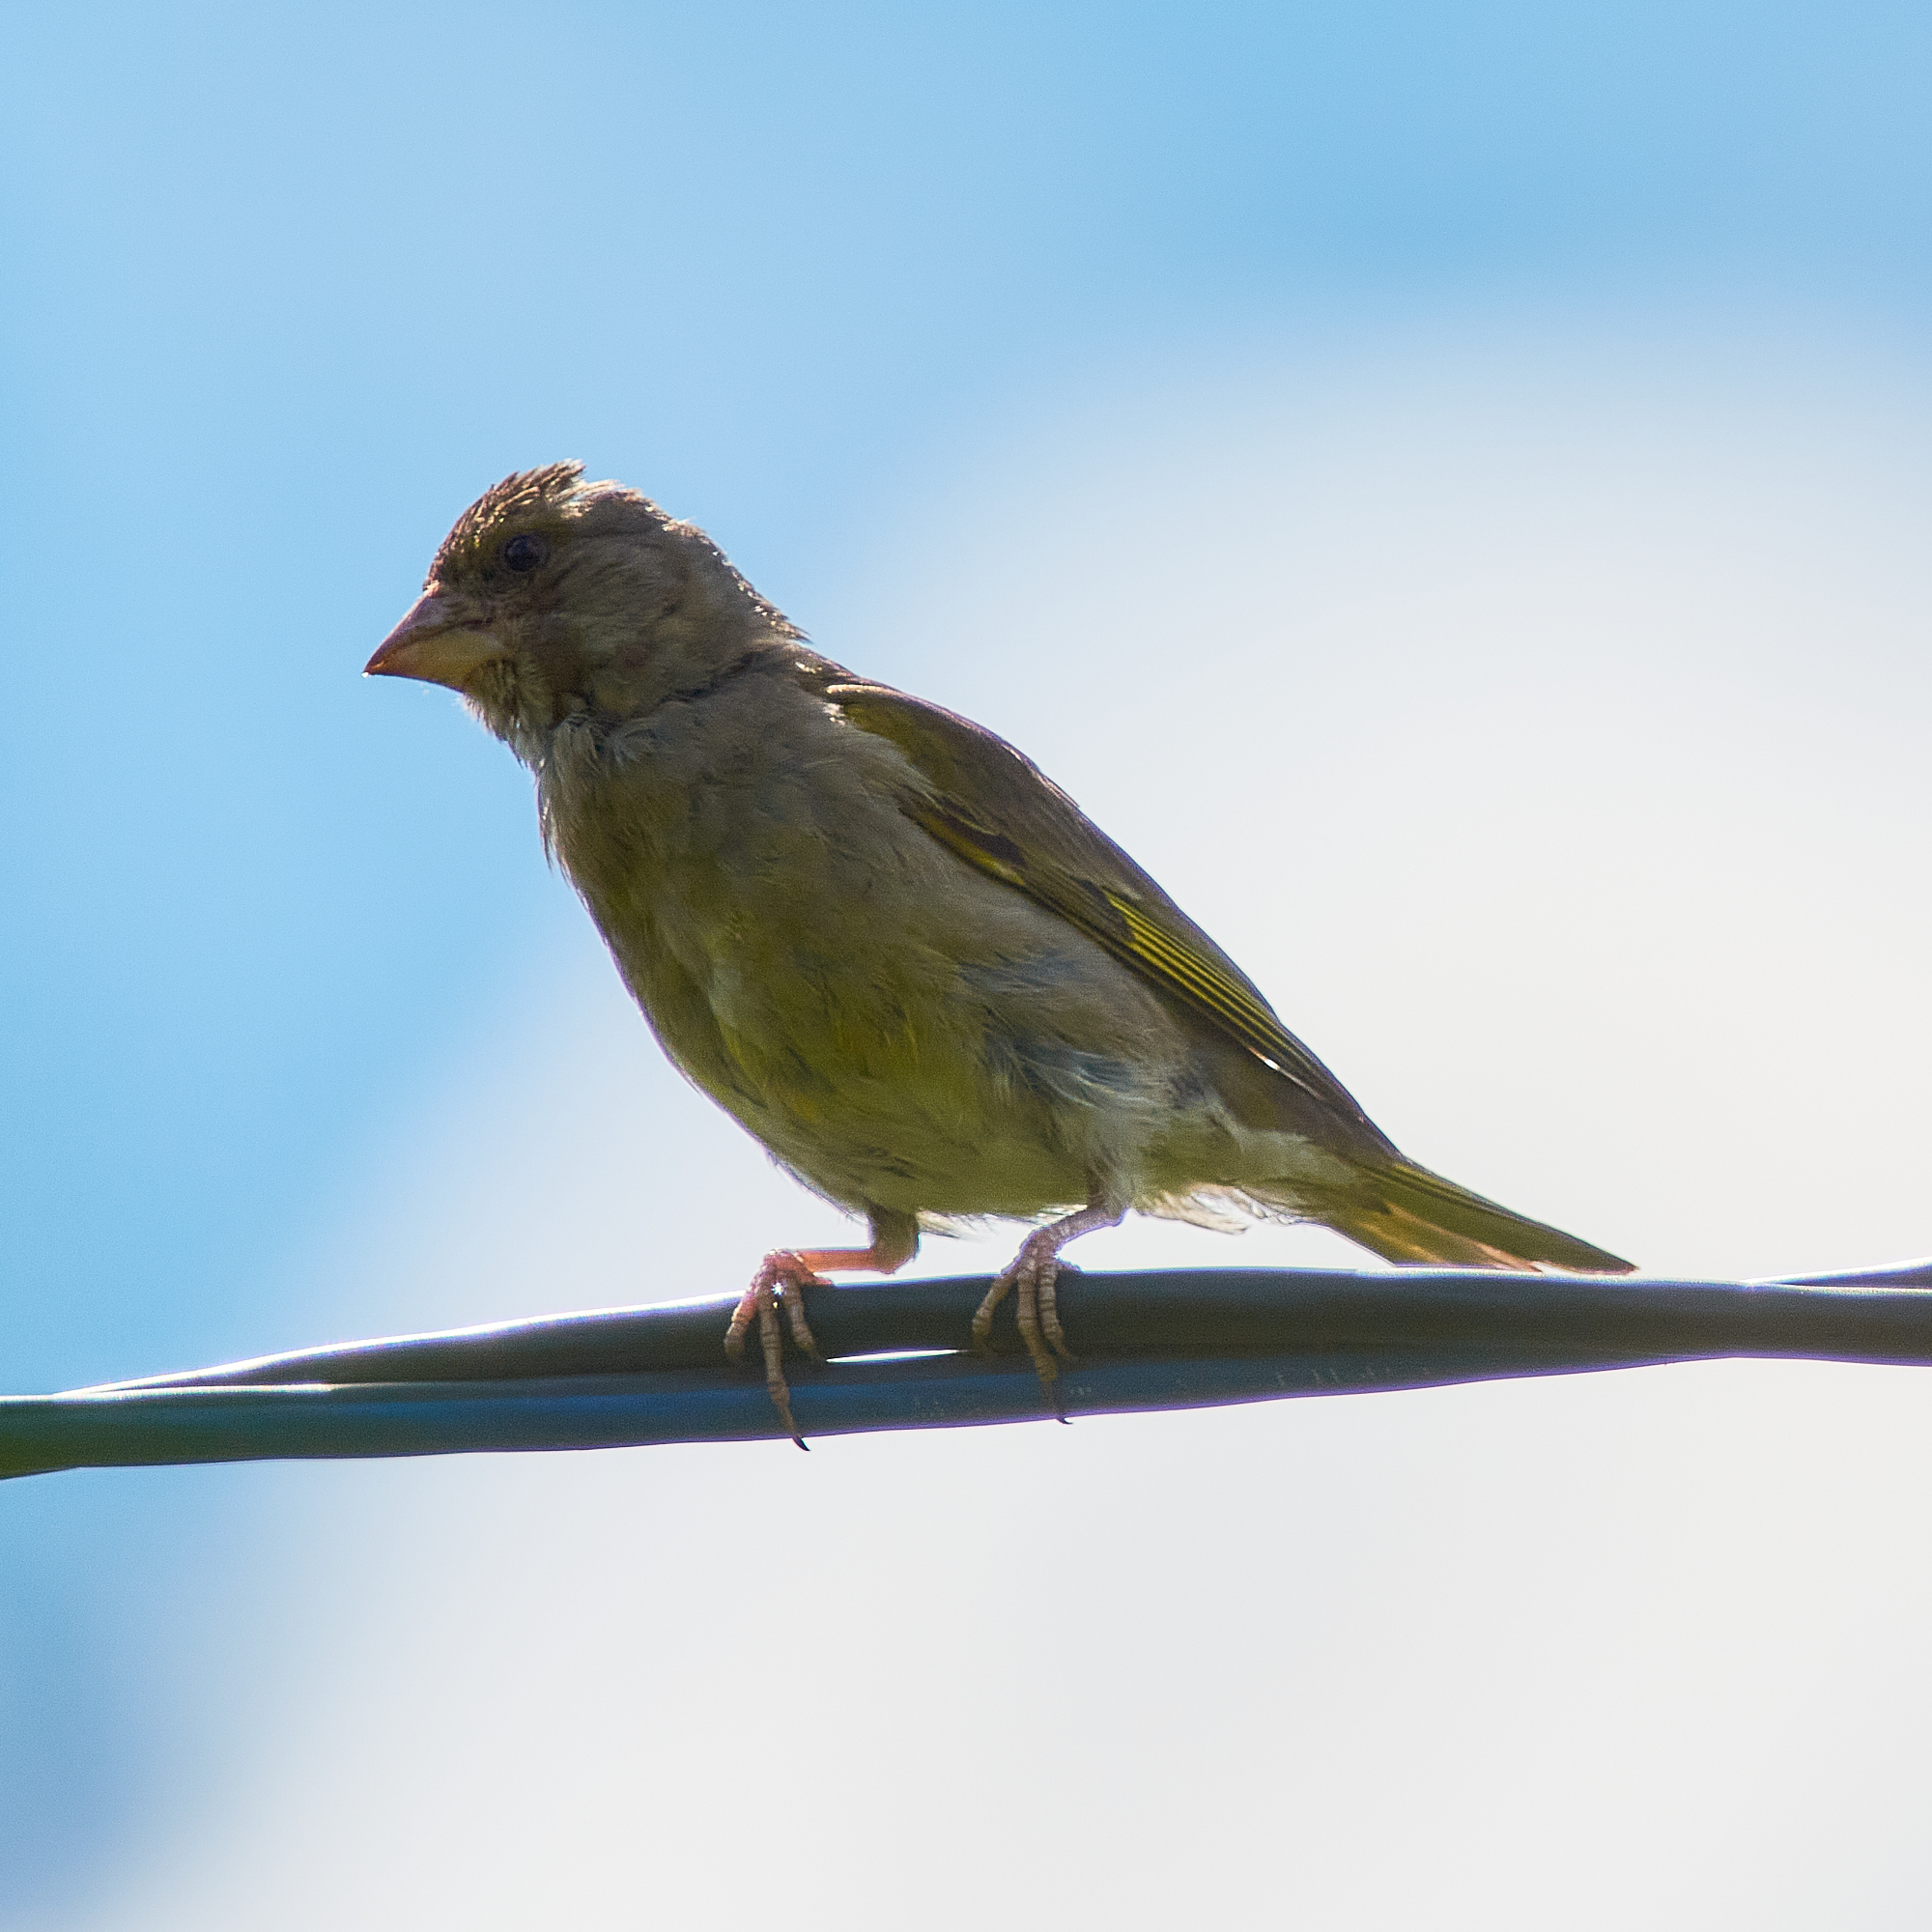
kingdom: Plantae
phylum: Tracheophyta
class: Liliopsida
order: Poales
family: Poaceae
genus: Chloris
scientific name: Chloris chloris
